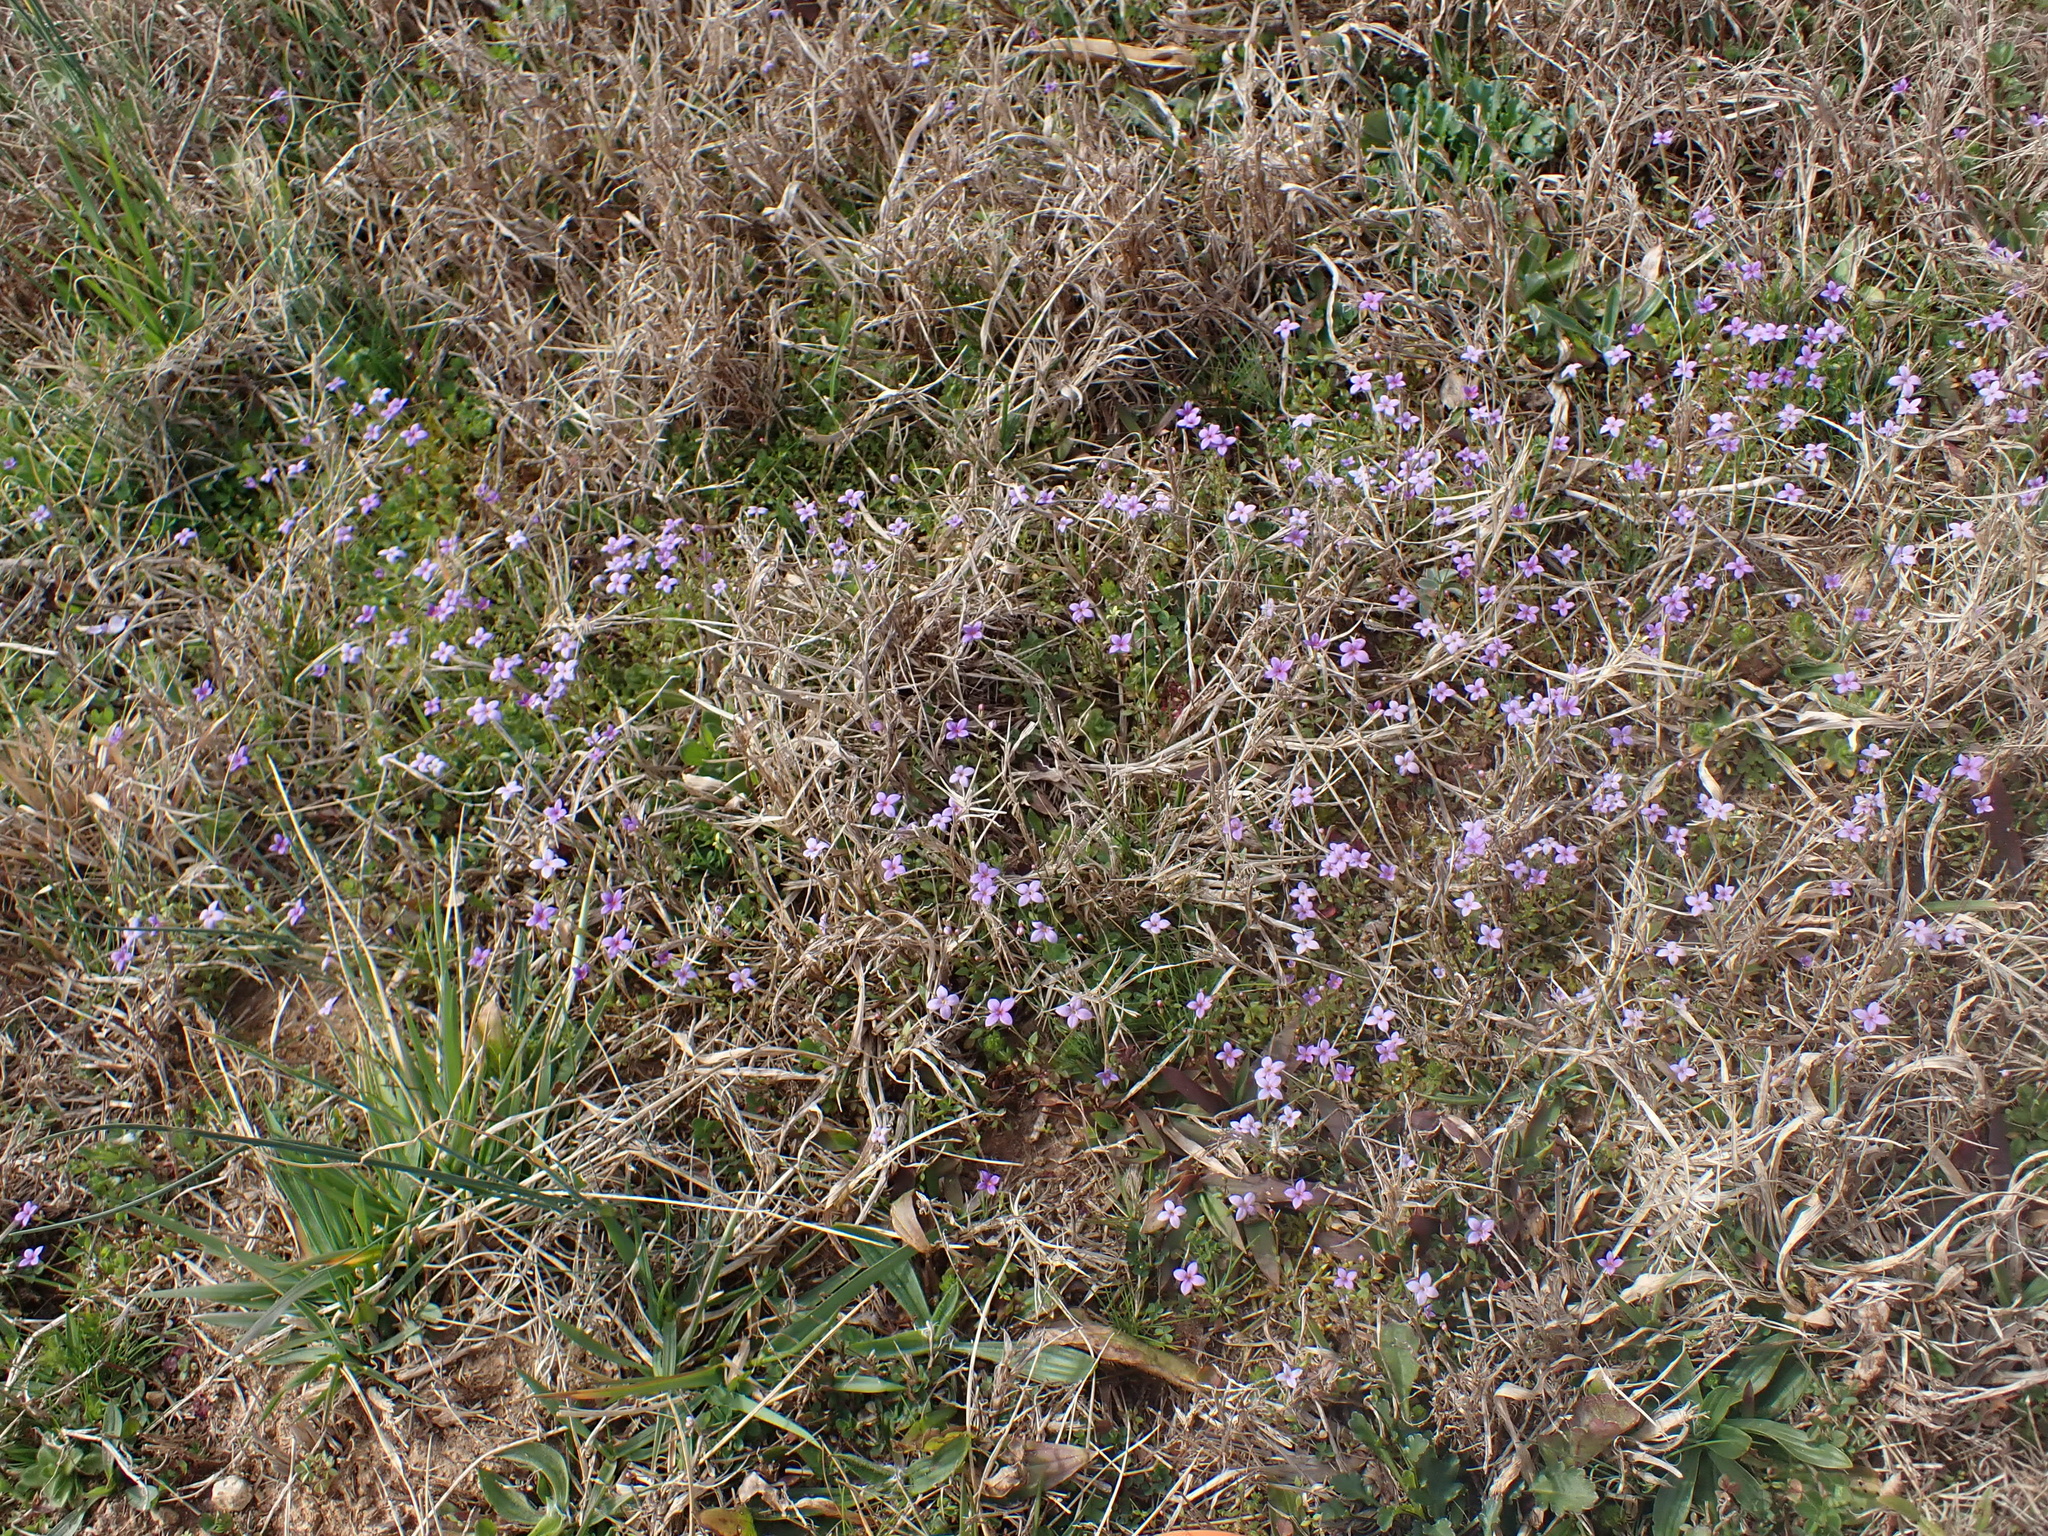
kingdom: Plantae
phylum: Tracheophyta
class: Magnoliopsida
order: Gentianales
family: Rubiaceae
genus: Houstonia
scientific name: Houstonia pusilla
